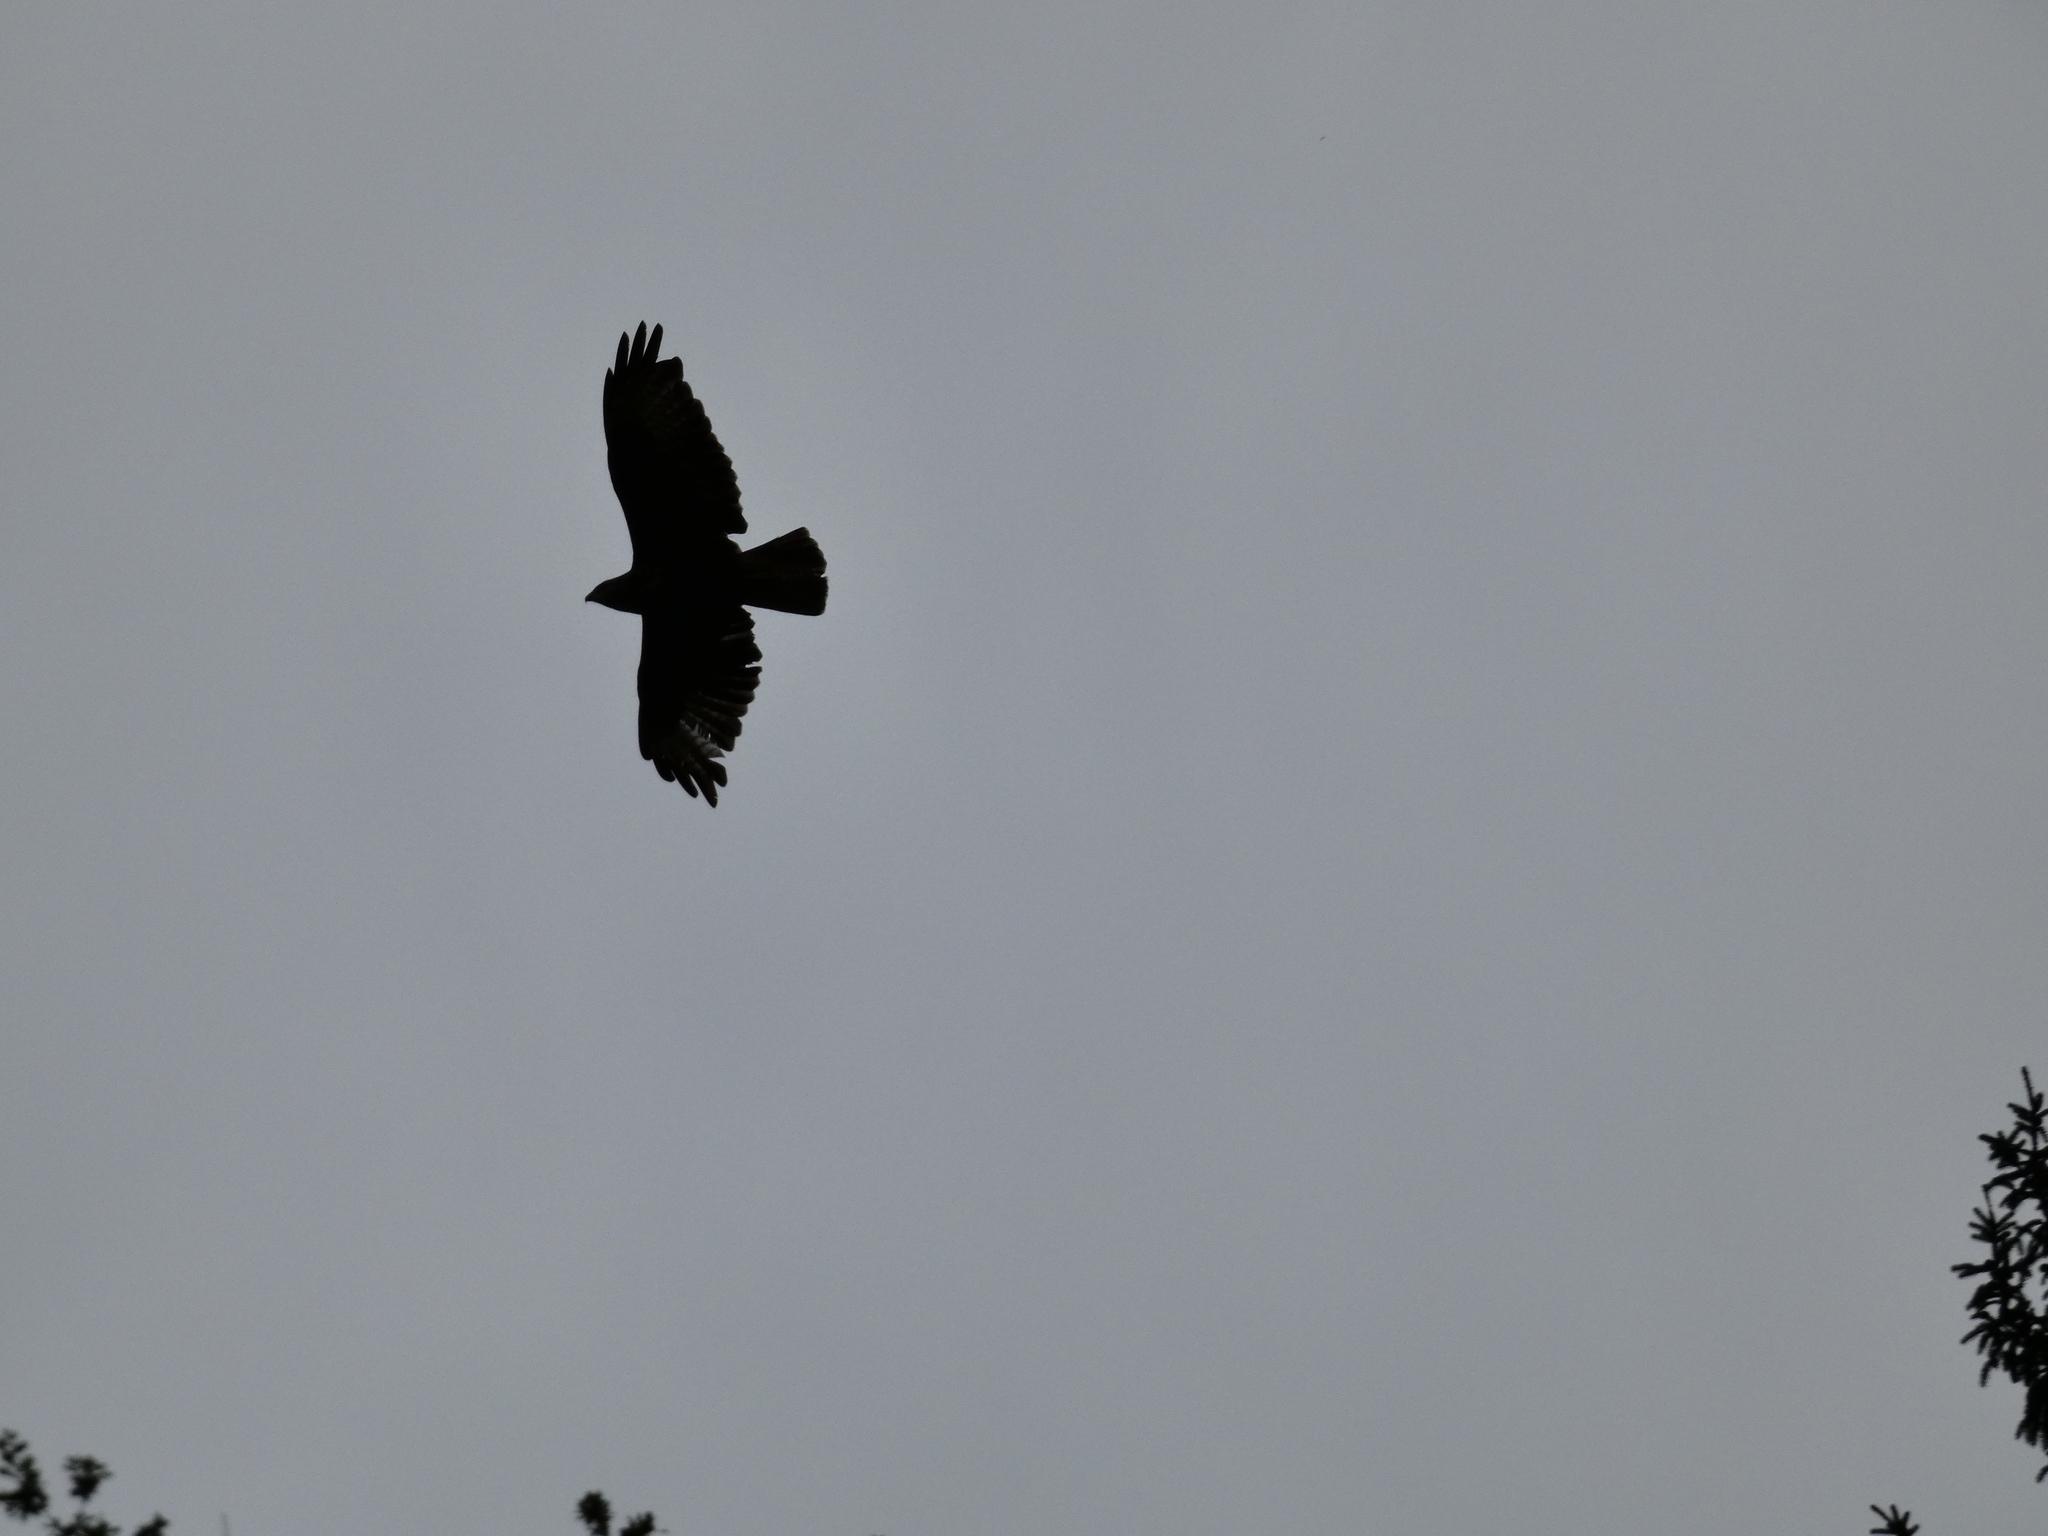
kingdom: Animalia
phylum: Chordata
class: Aves
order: Accipitriformes
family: Accipitridae
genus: Buteo
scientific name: Buteo buteo
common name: Common buzzard
